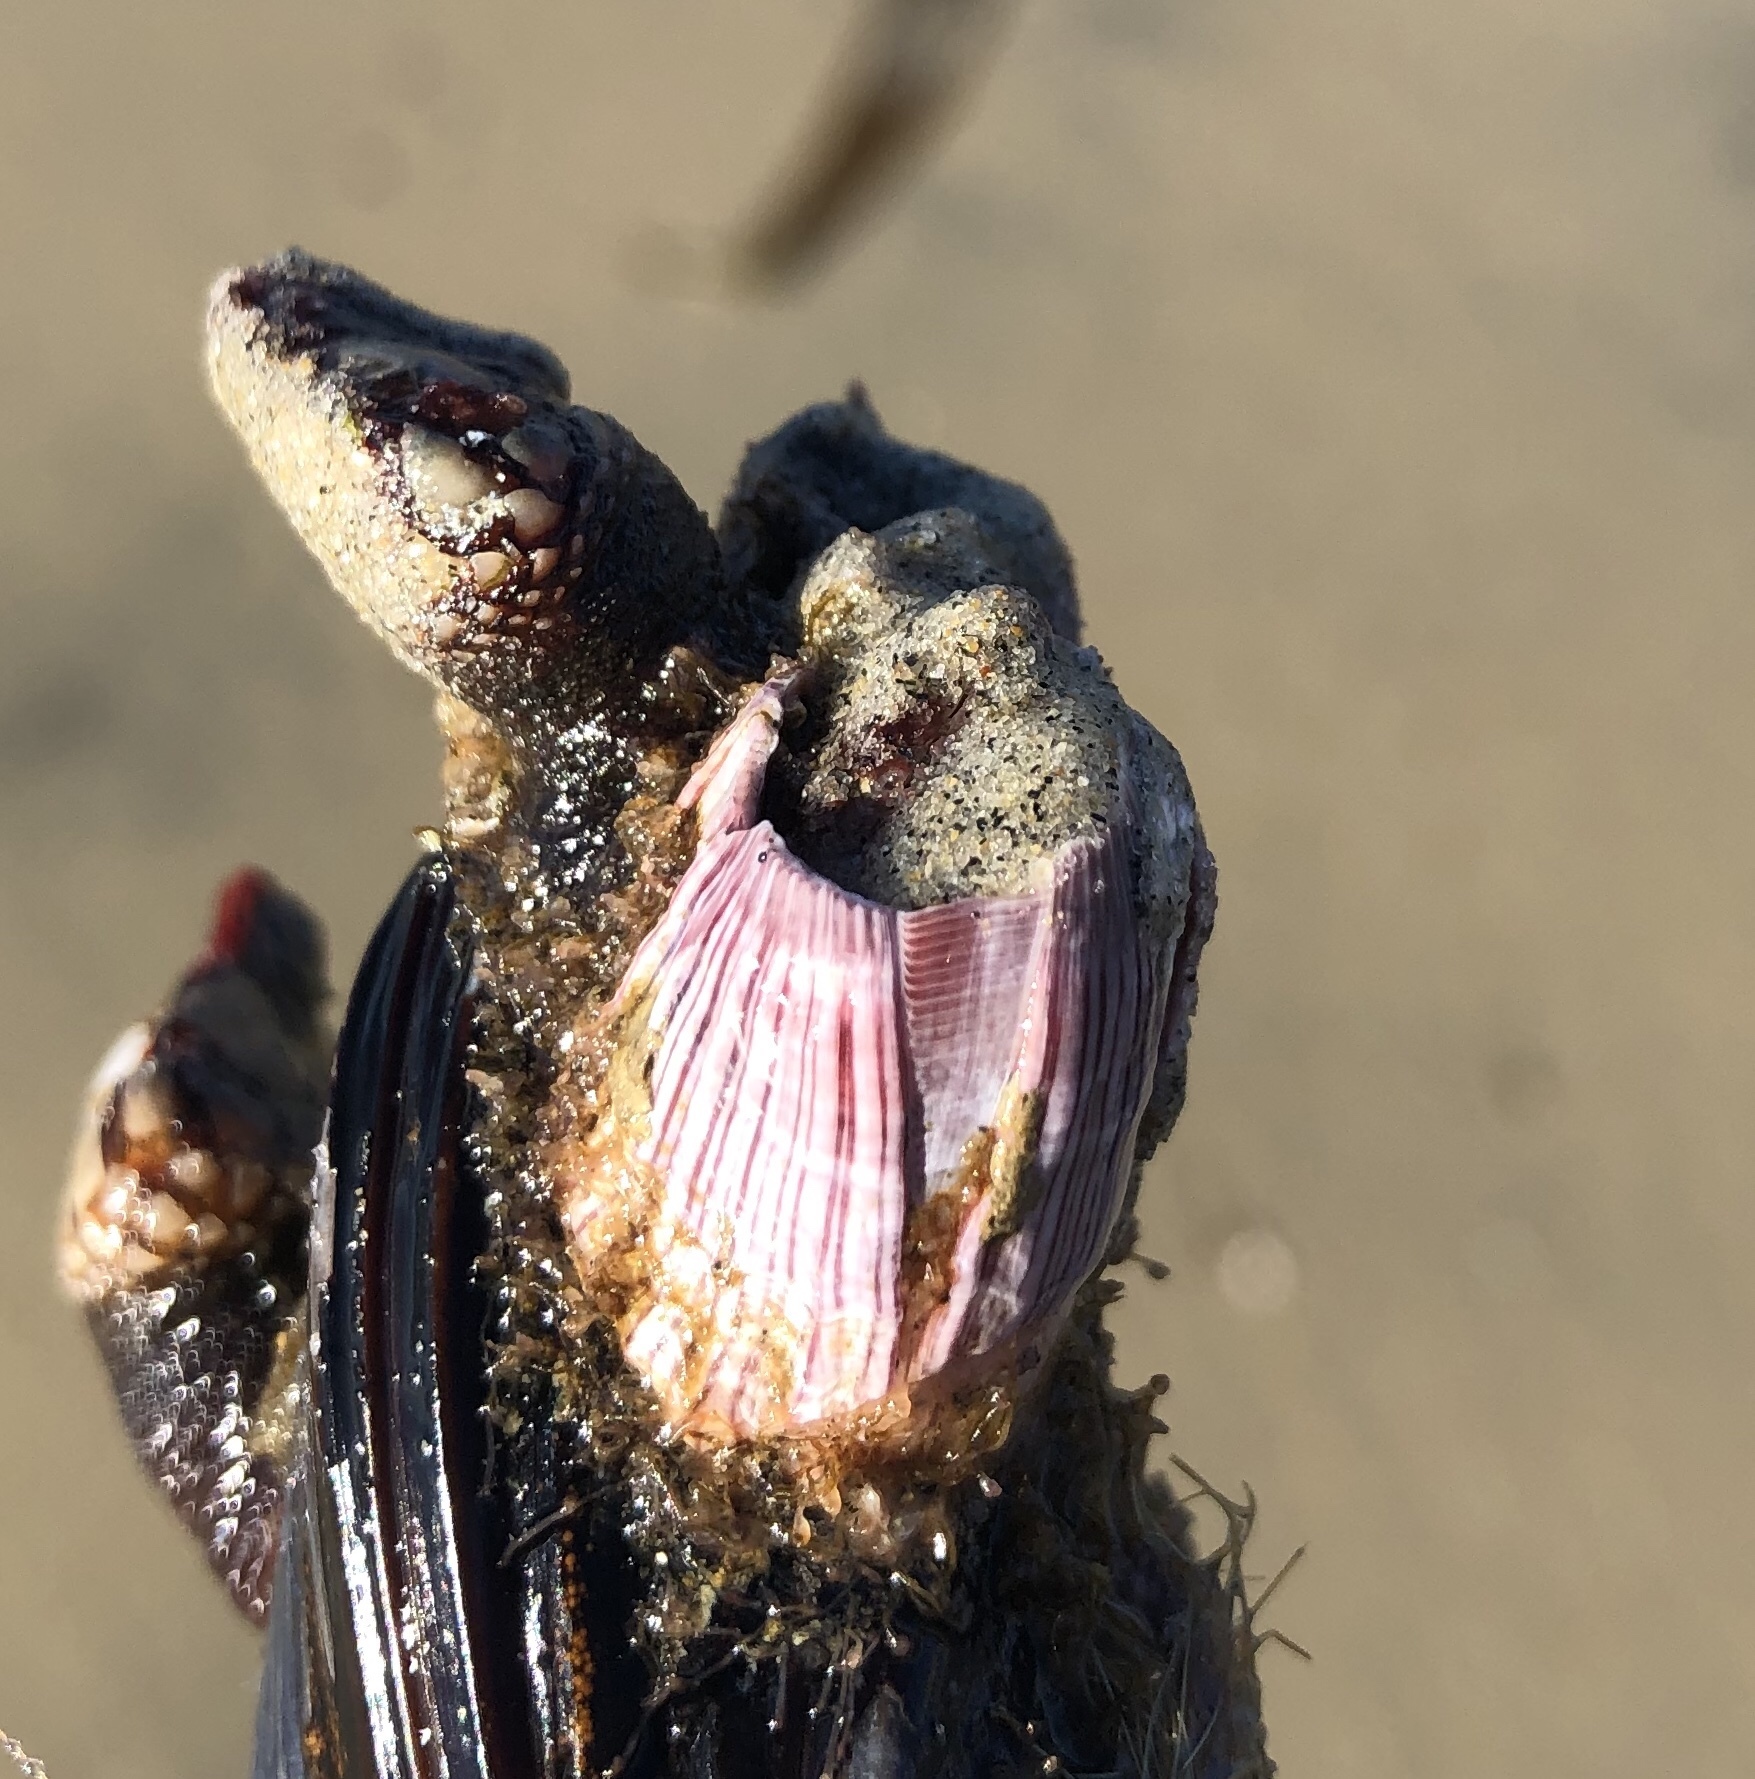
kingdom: Animalia
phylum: Arthropoda
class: Maxillopoda
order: Sessilia
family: Balanidae
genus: Megabalanus
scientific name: Megabalanus californicus
